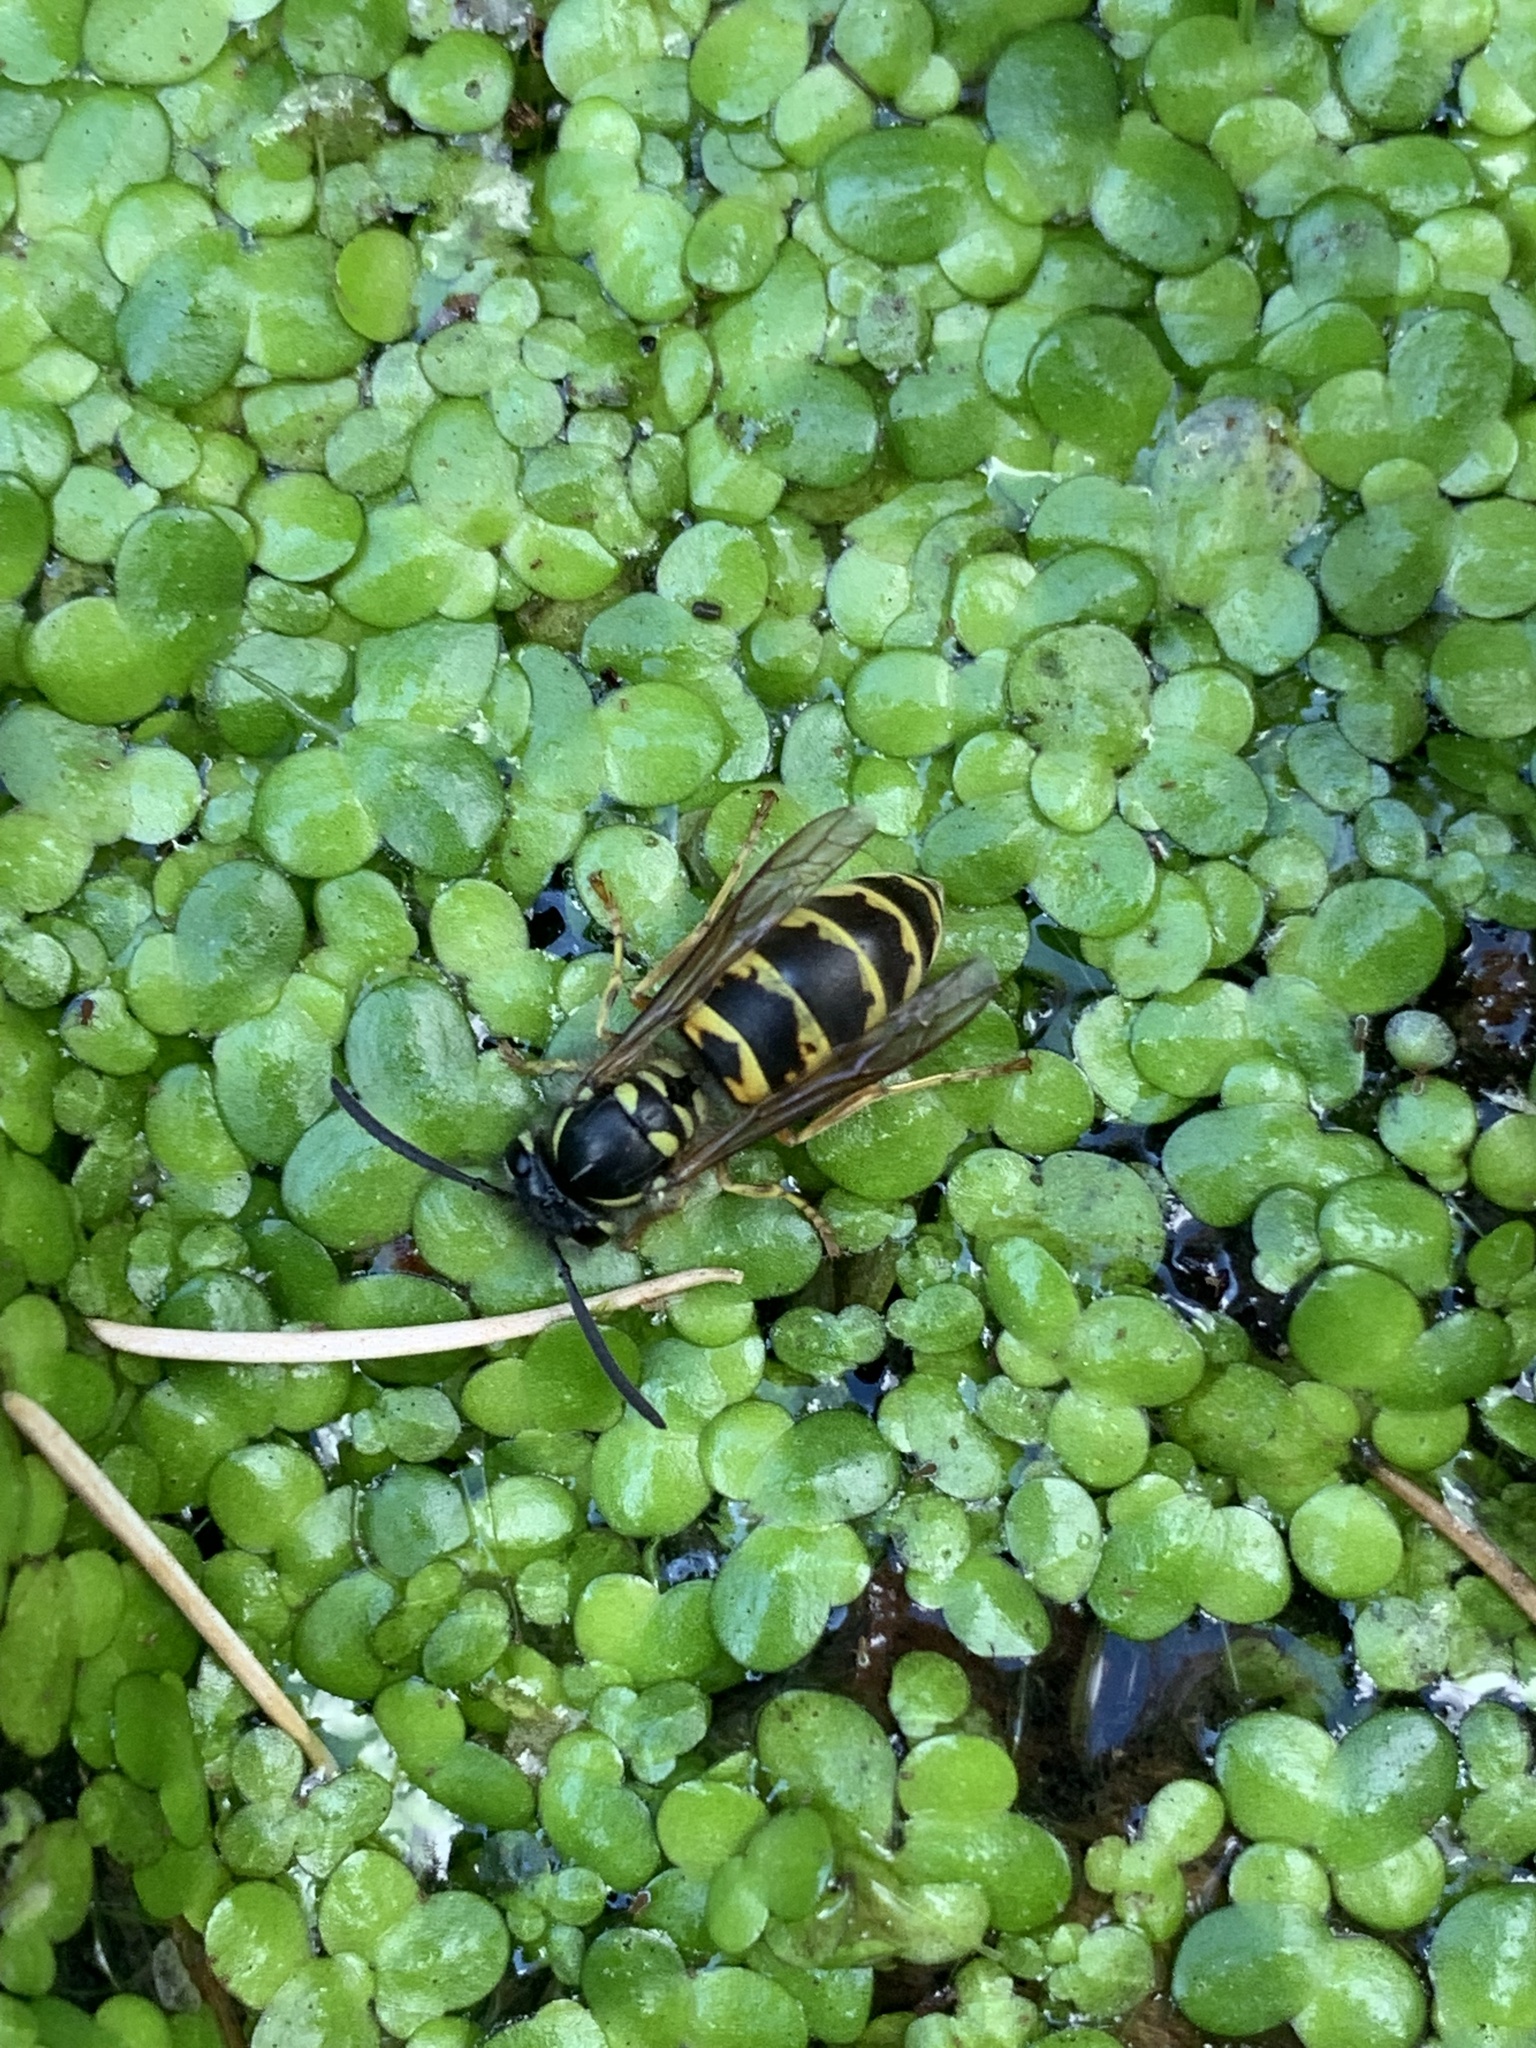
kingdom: Animalia
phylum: Arthropoda
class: Insecta
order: Hymenoptera
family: Vespidae
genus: Vespula
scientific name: Vespula vulgaris
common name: Common wasp
